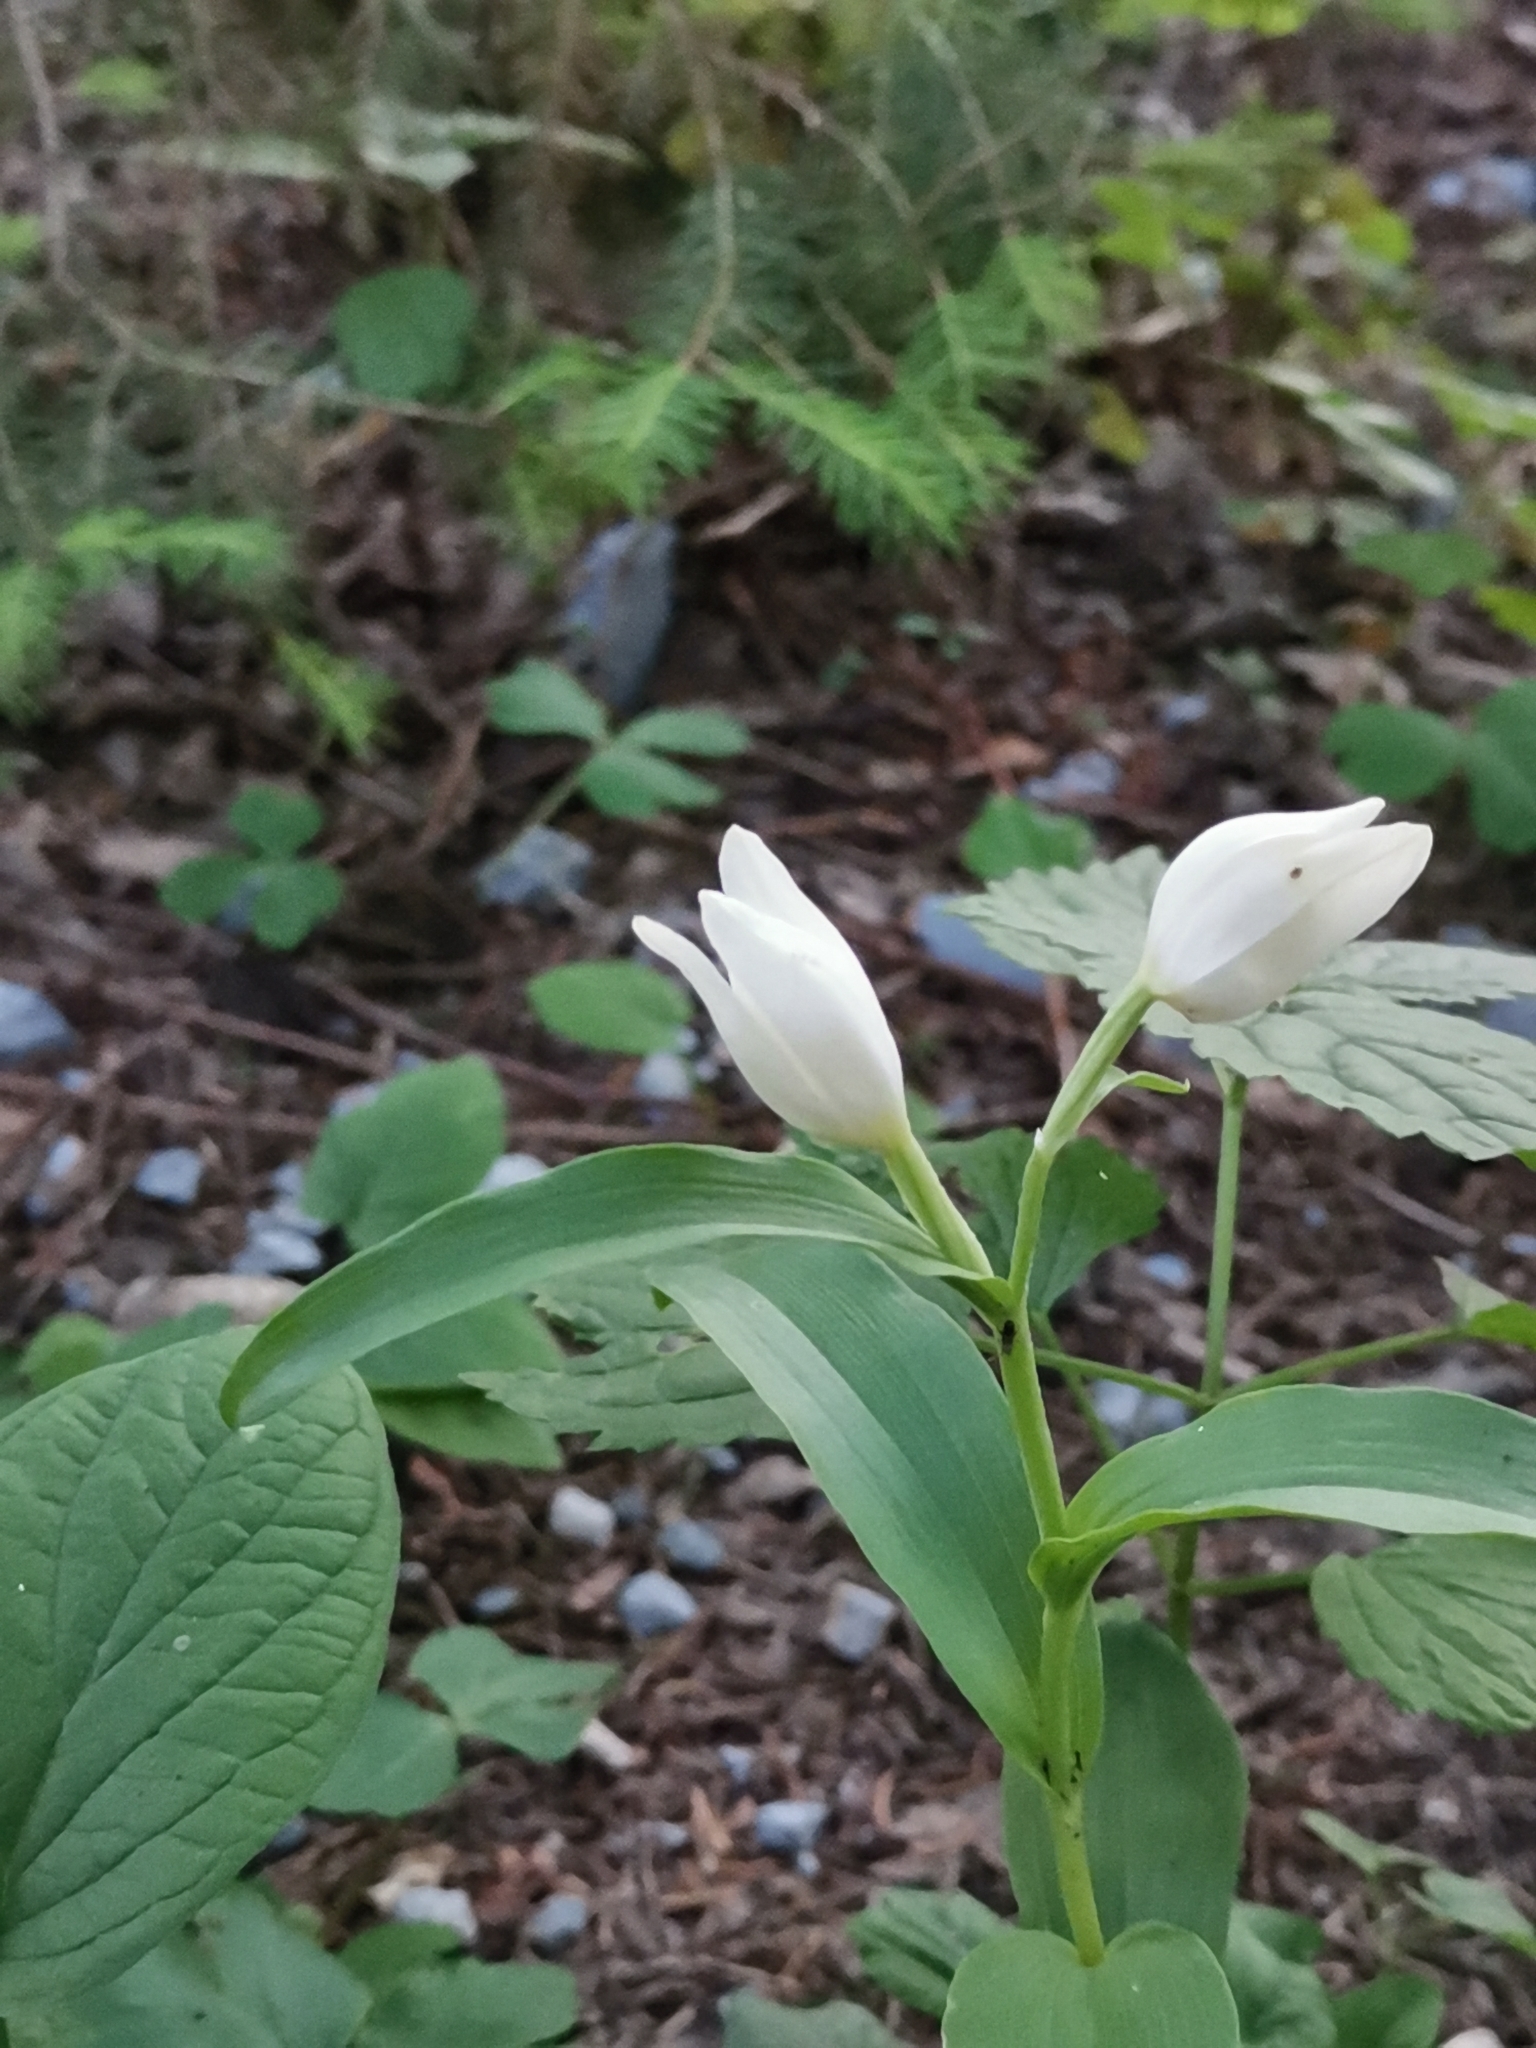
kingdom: Plantae
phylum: Tracheophyta
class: Liliopsida
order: Asparagales
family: Orchidaceae
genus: Cephalanthera
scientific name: Cephalanthera damasonium
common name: White helleborine
